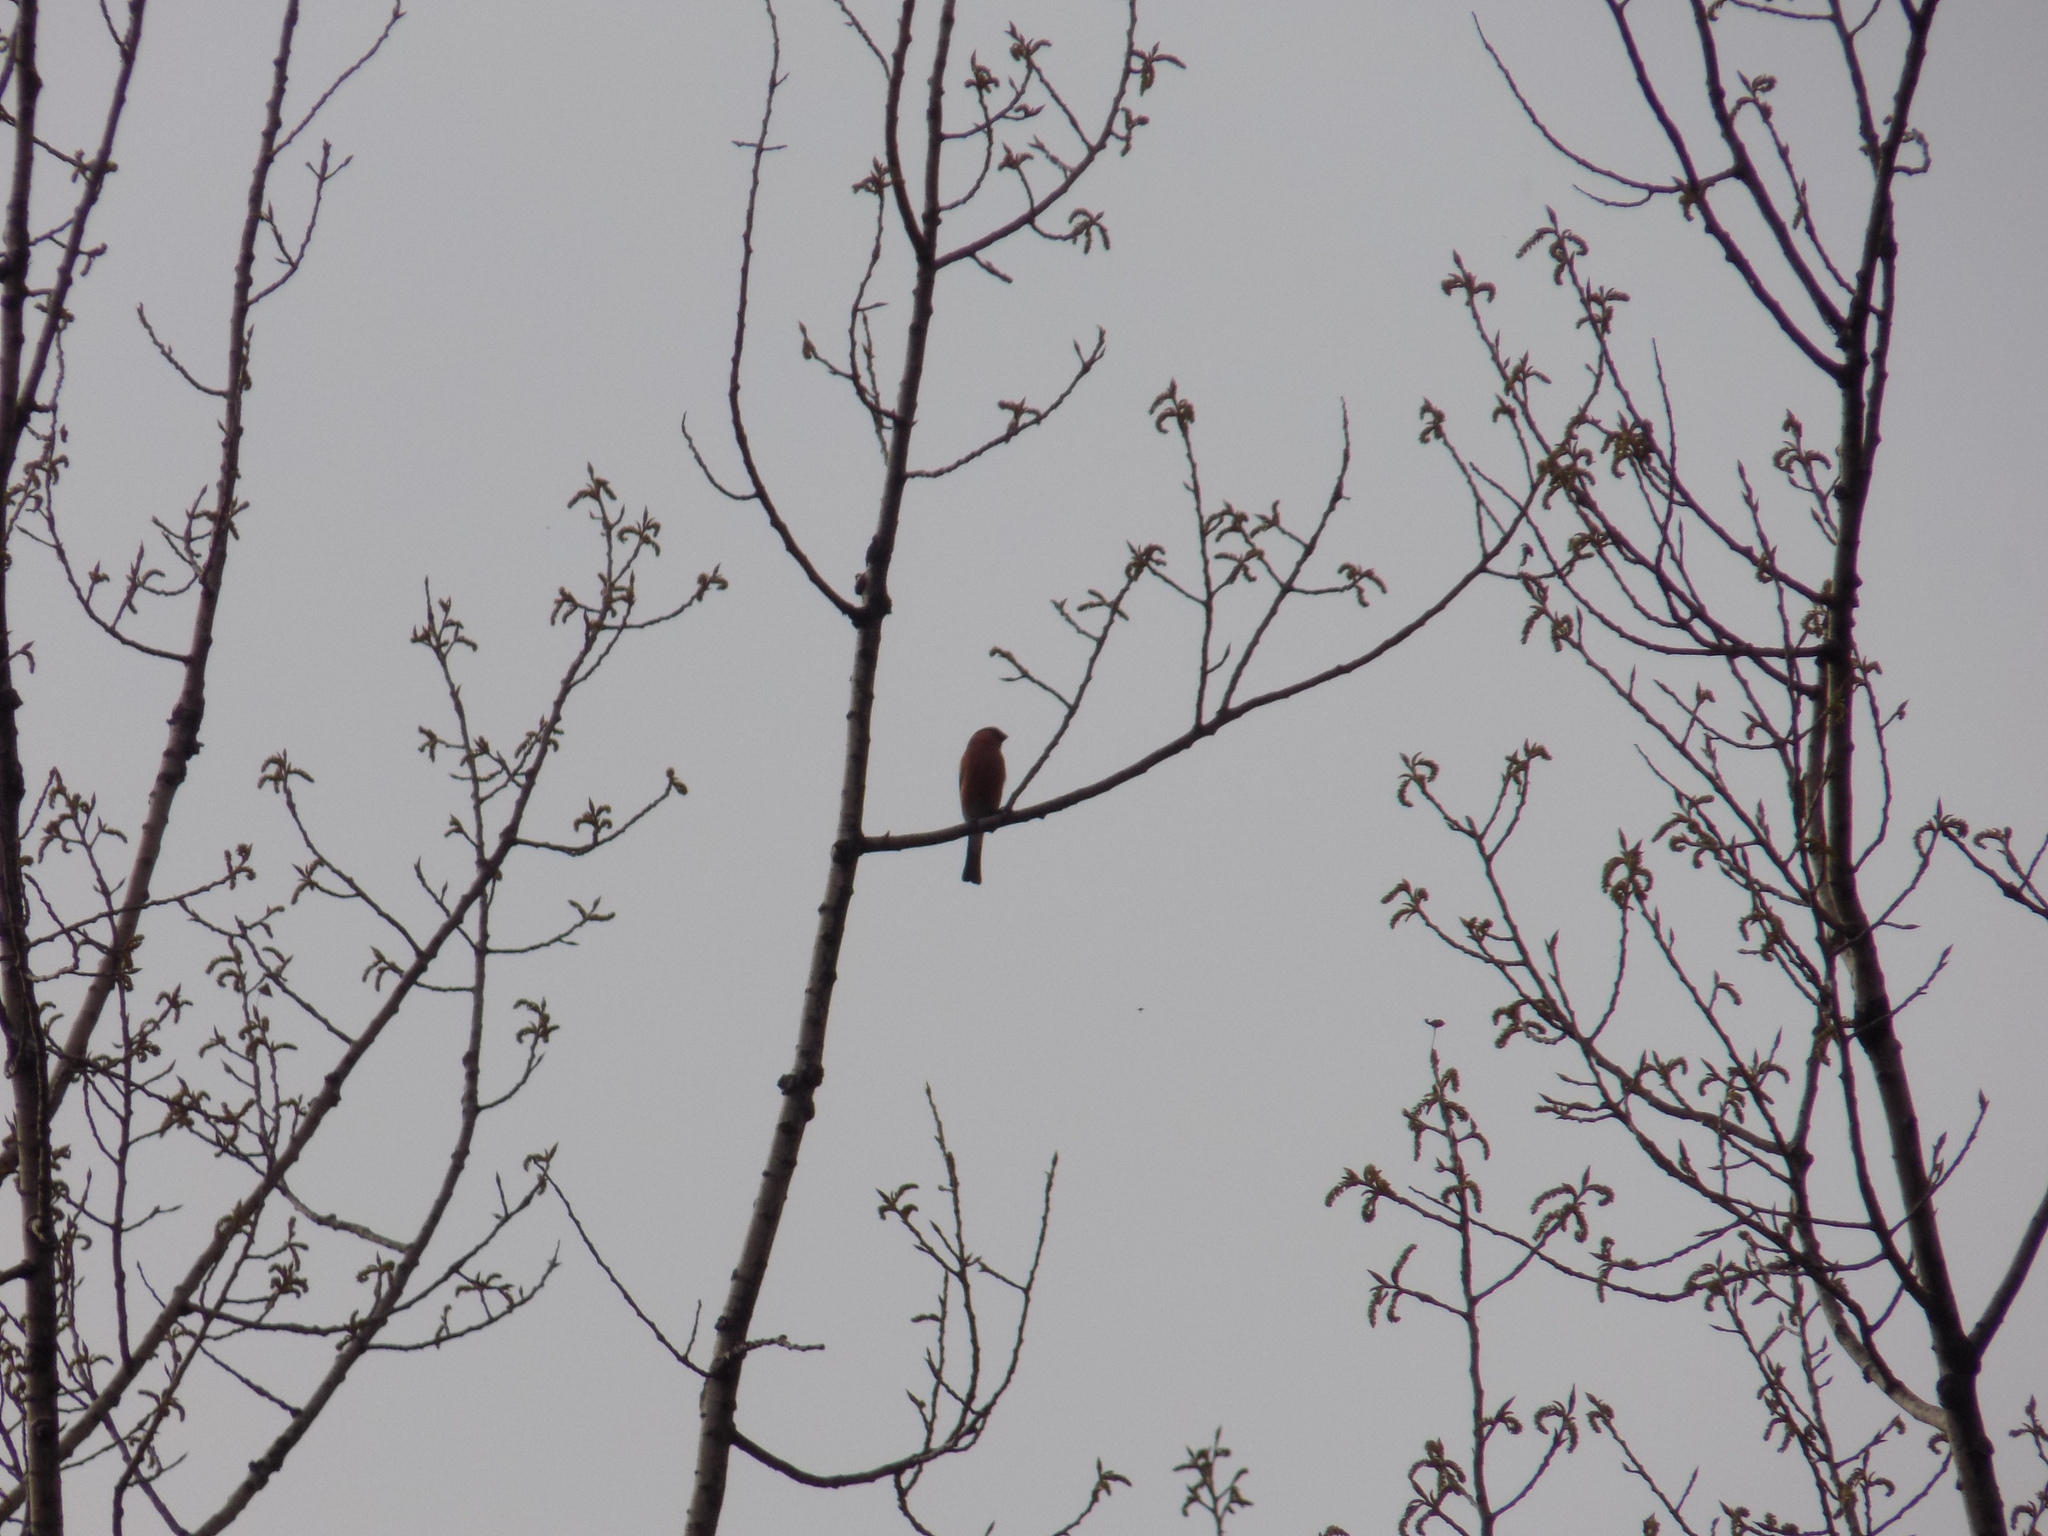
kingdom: Animalia
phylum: Chordata
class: Aves
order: Passeriformes
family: Fringillidae
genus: Pyrrhula
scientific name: Pyrrhula pyrrhula
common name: Eurasian bullfinch
